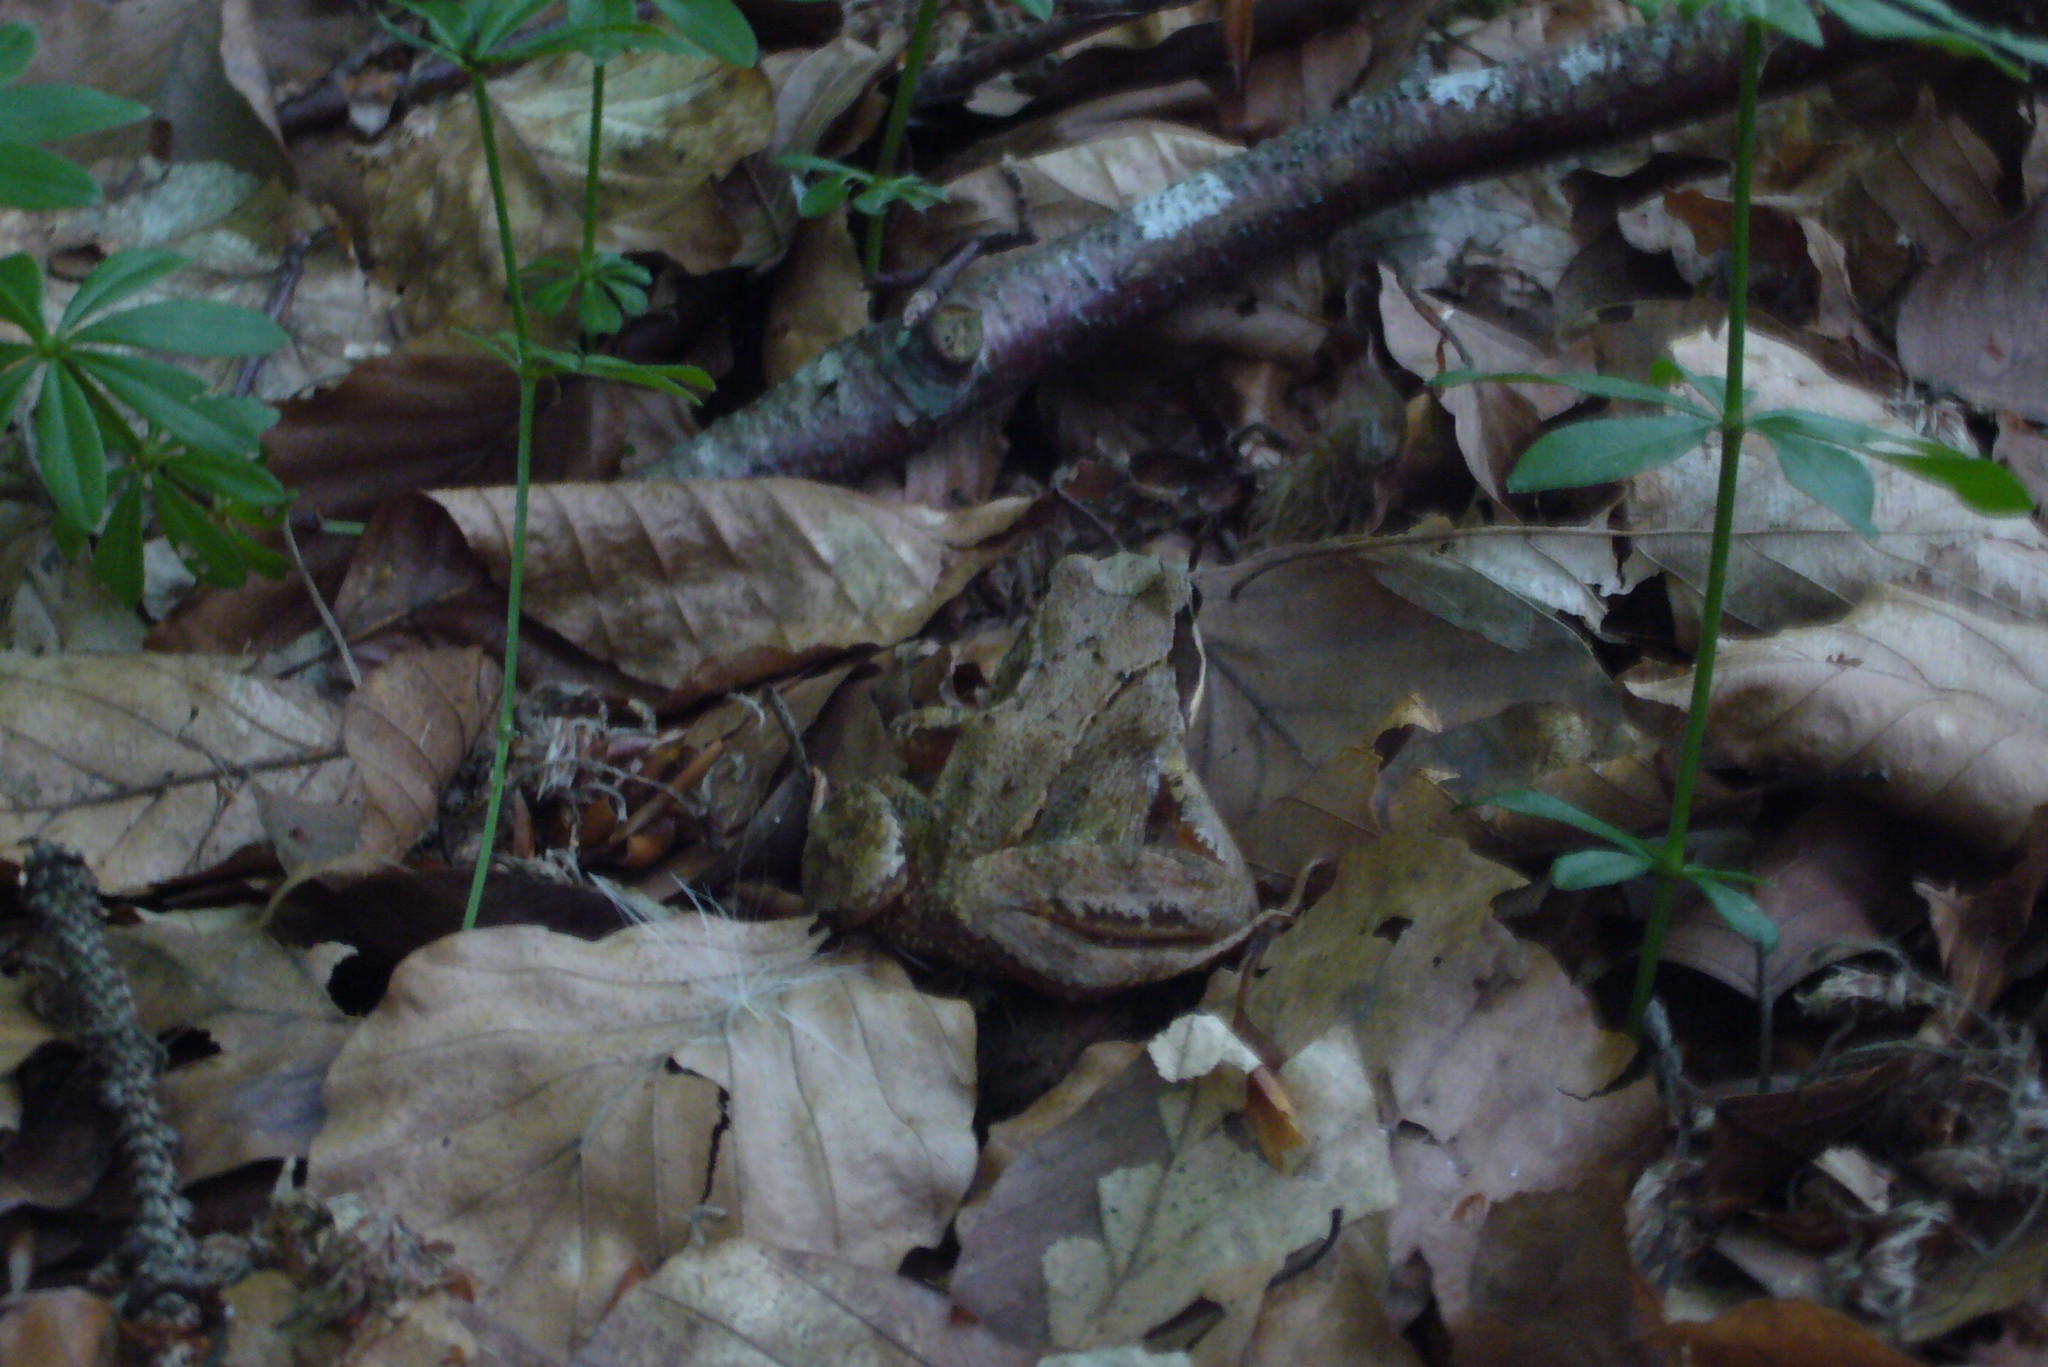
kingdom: Animalia
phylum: Chordata
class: Amphibia
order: Anura
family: Ranidae
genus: Rana
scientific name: Rana temporaria
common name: Common frog
